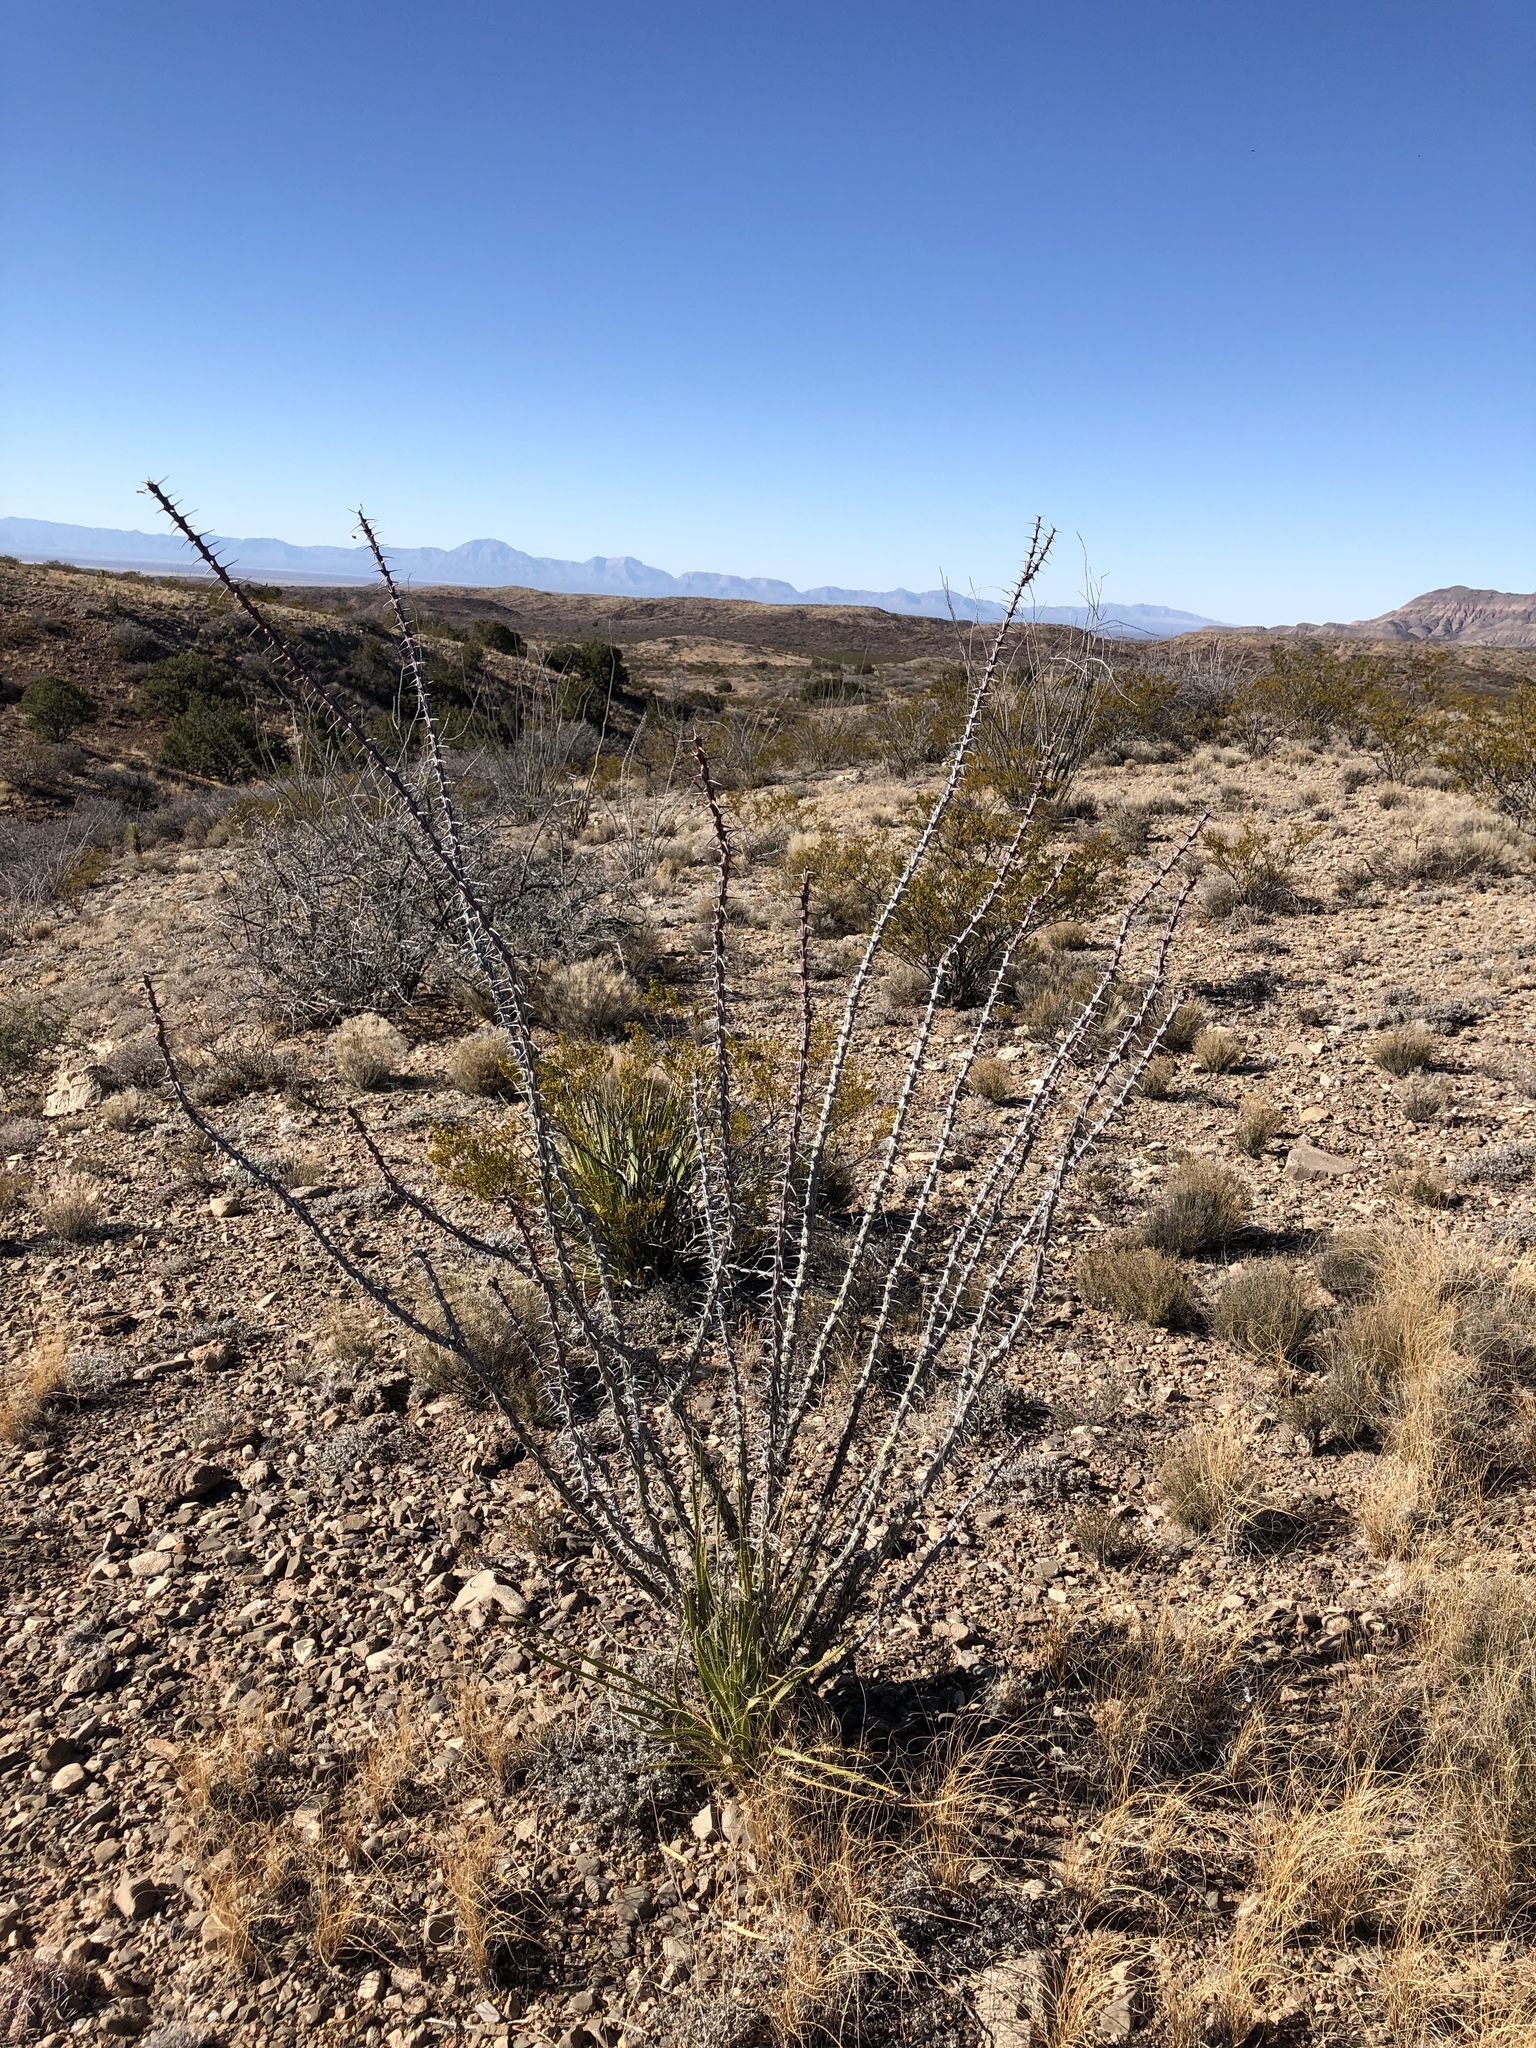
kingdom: Plantae
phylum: Tracheophyta
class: Magnoliopsida
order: Ericales
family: Fouquieriaceae
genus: Fouquieria
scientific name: Fouquieria splendens
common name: Vine-cactus
